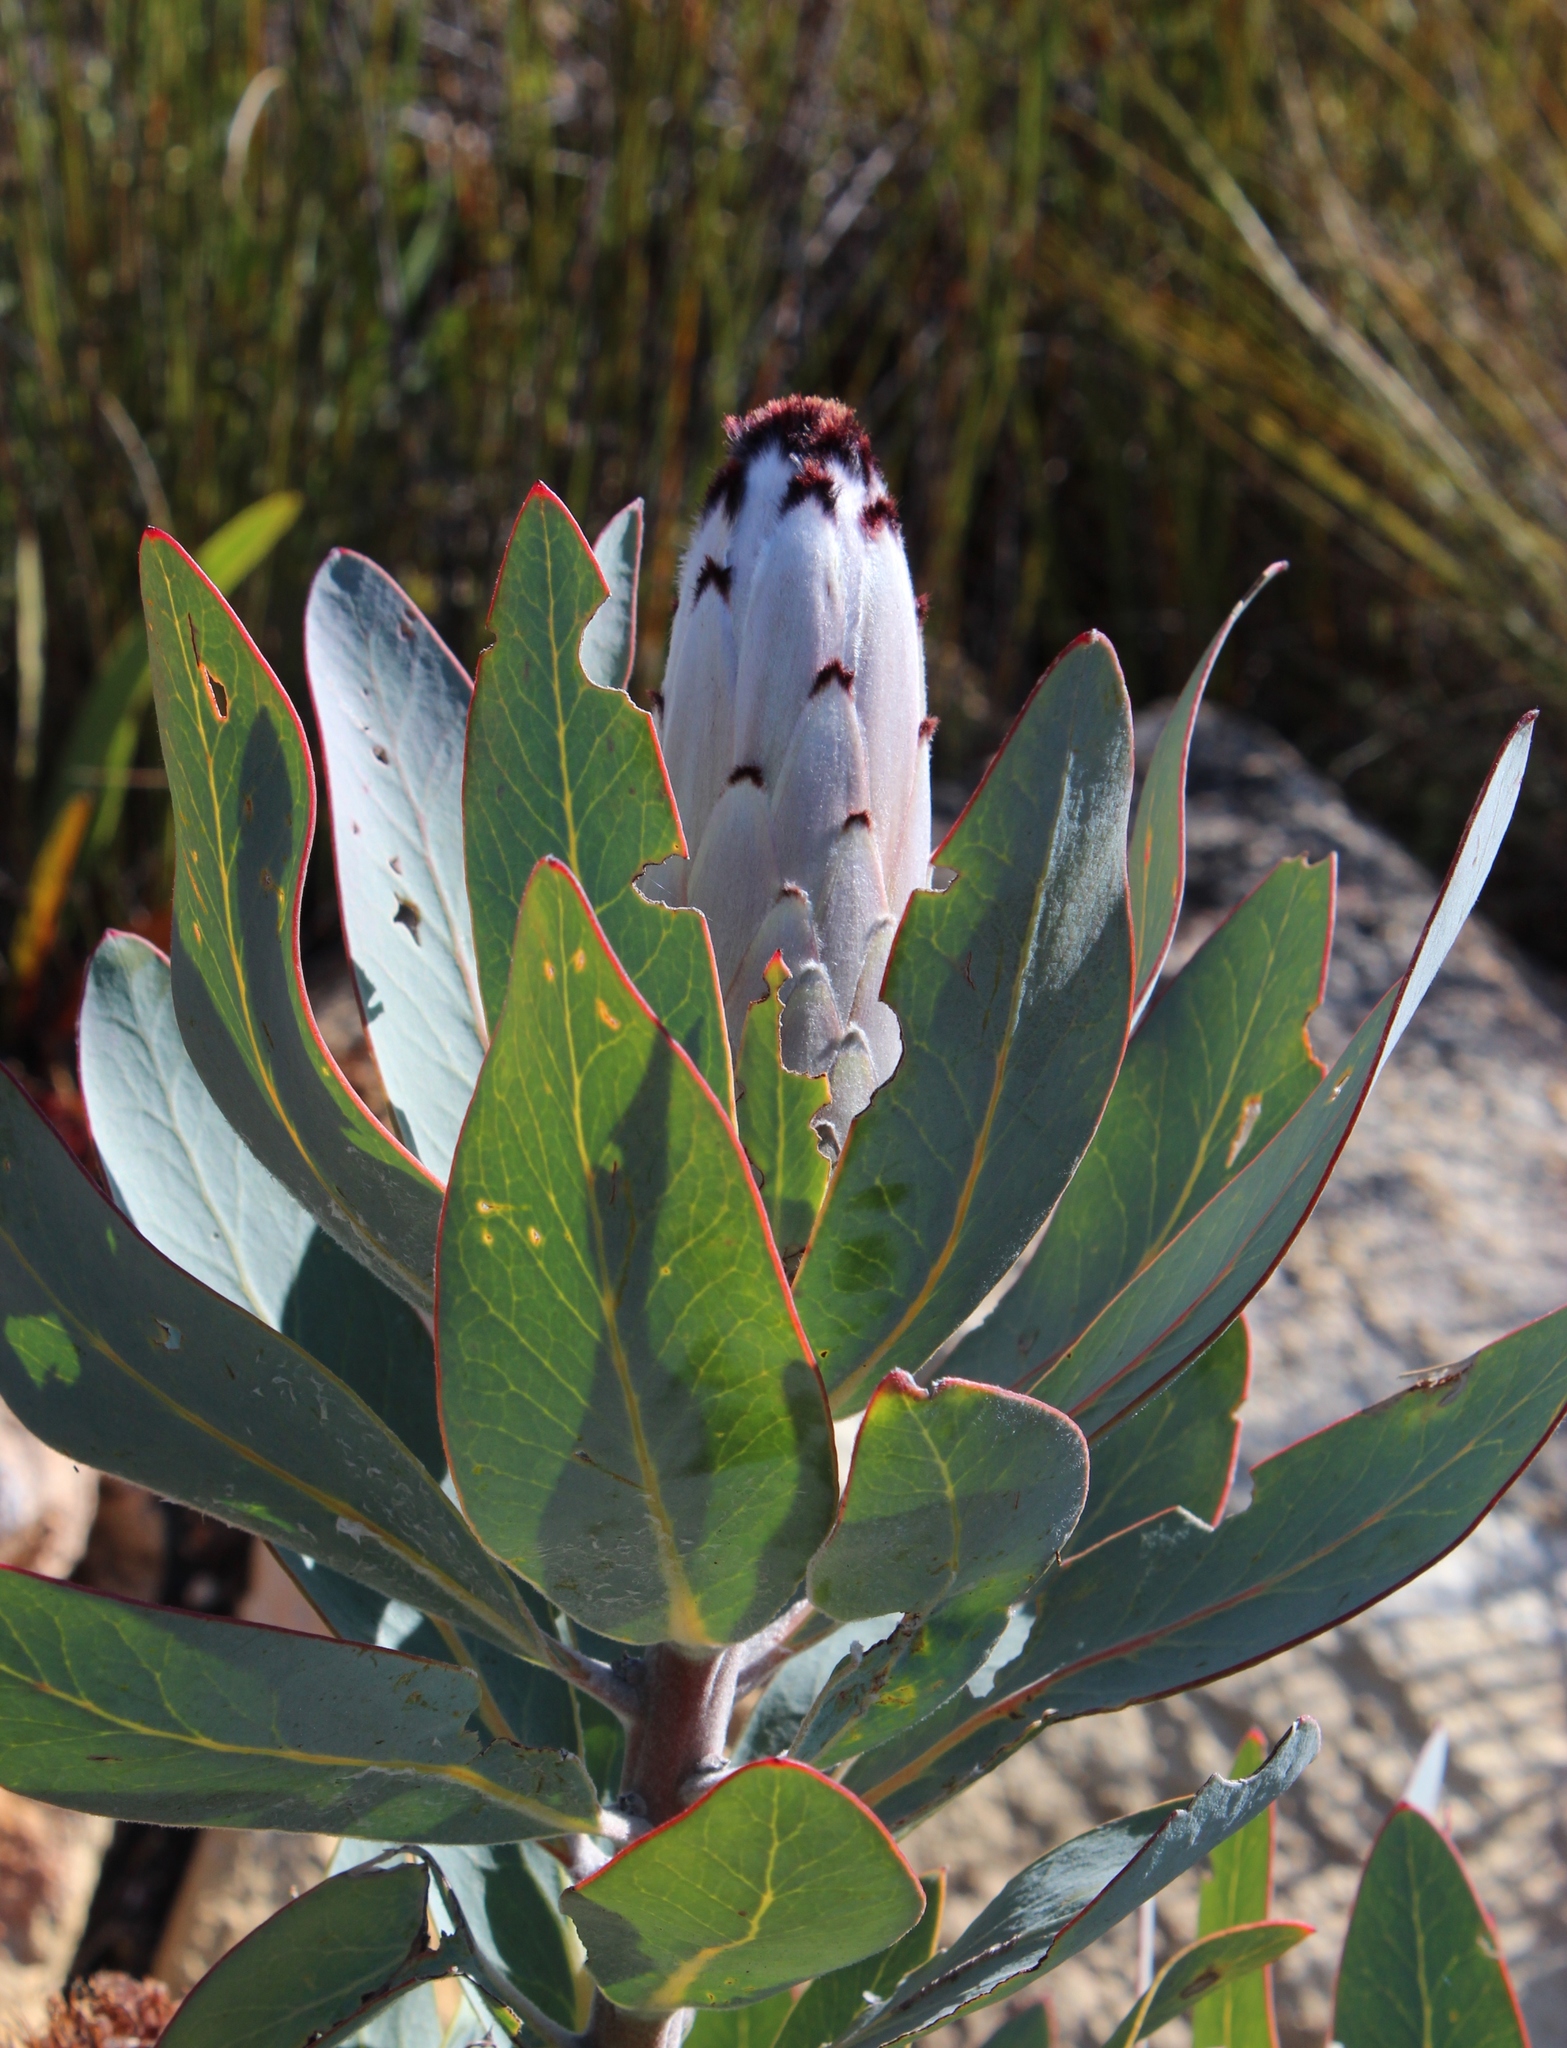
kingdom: Plantae
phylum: Tracheophyta
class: Magnoliopsida
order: Proteales
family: Proteaceae
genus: Protea
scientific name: Protea laurifolia
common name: Grey-leaf sugarbsh
